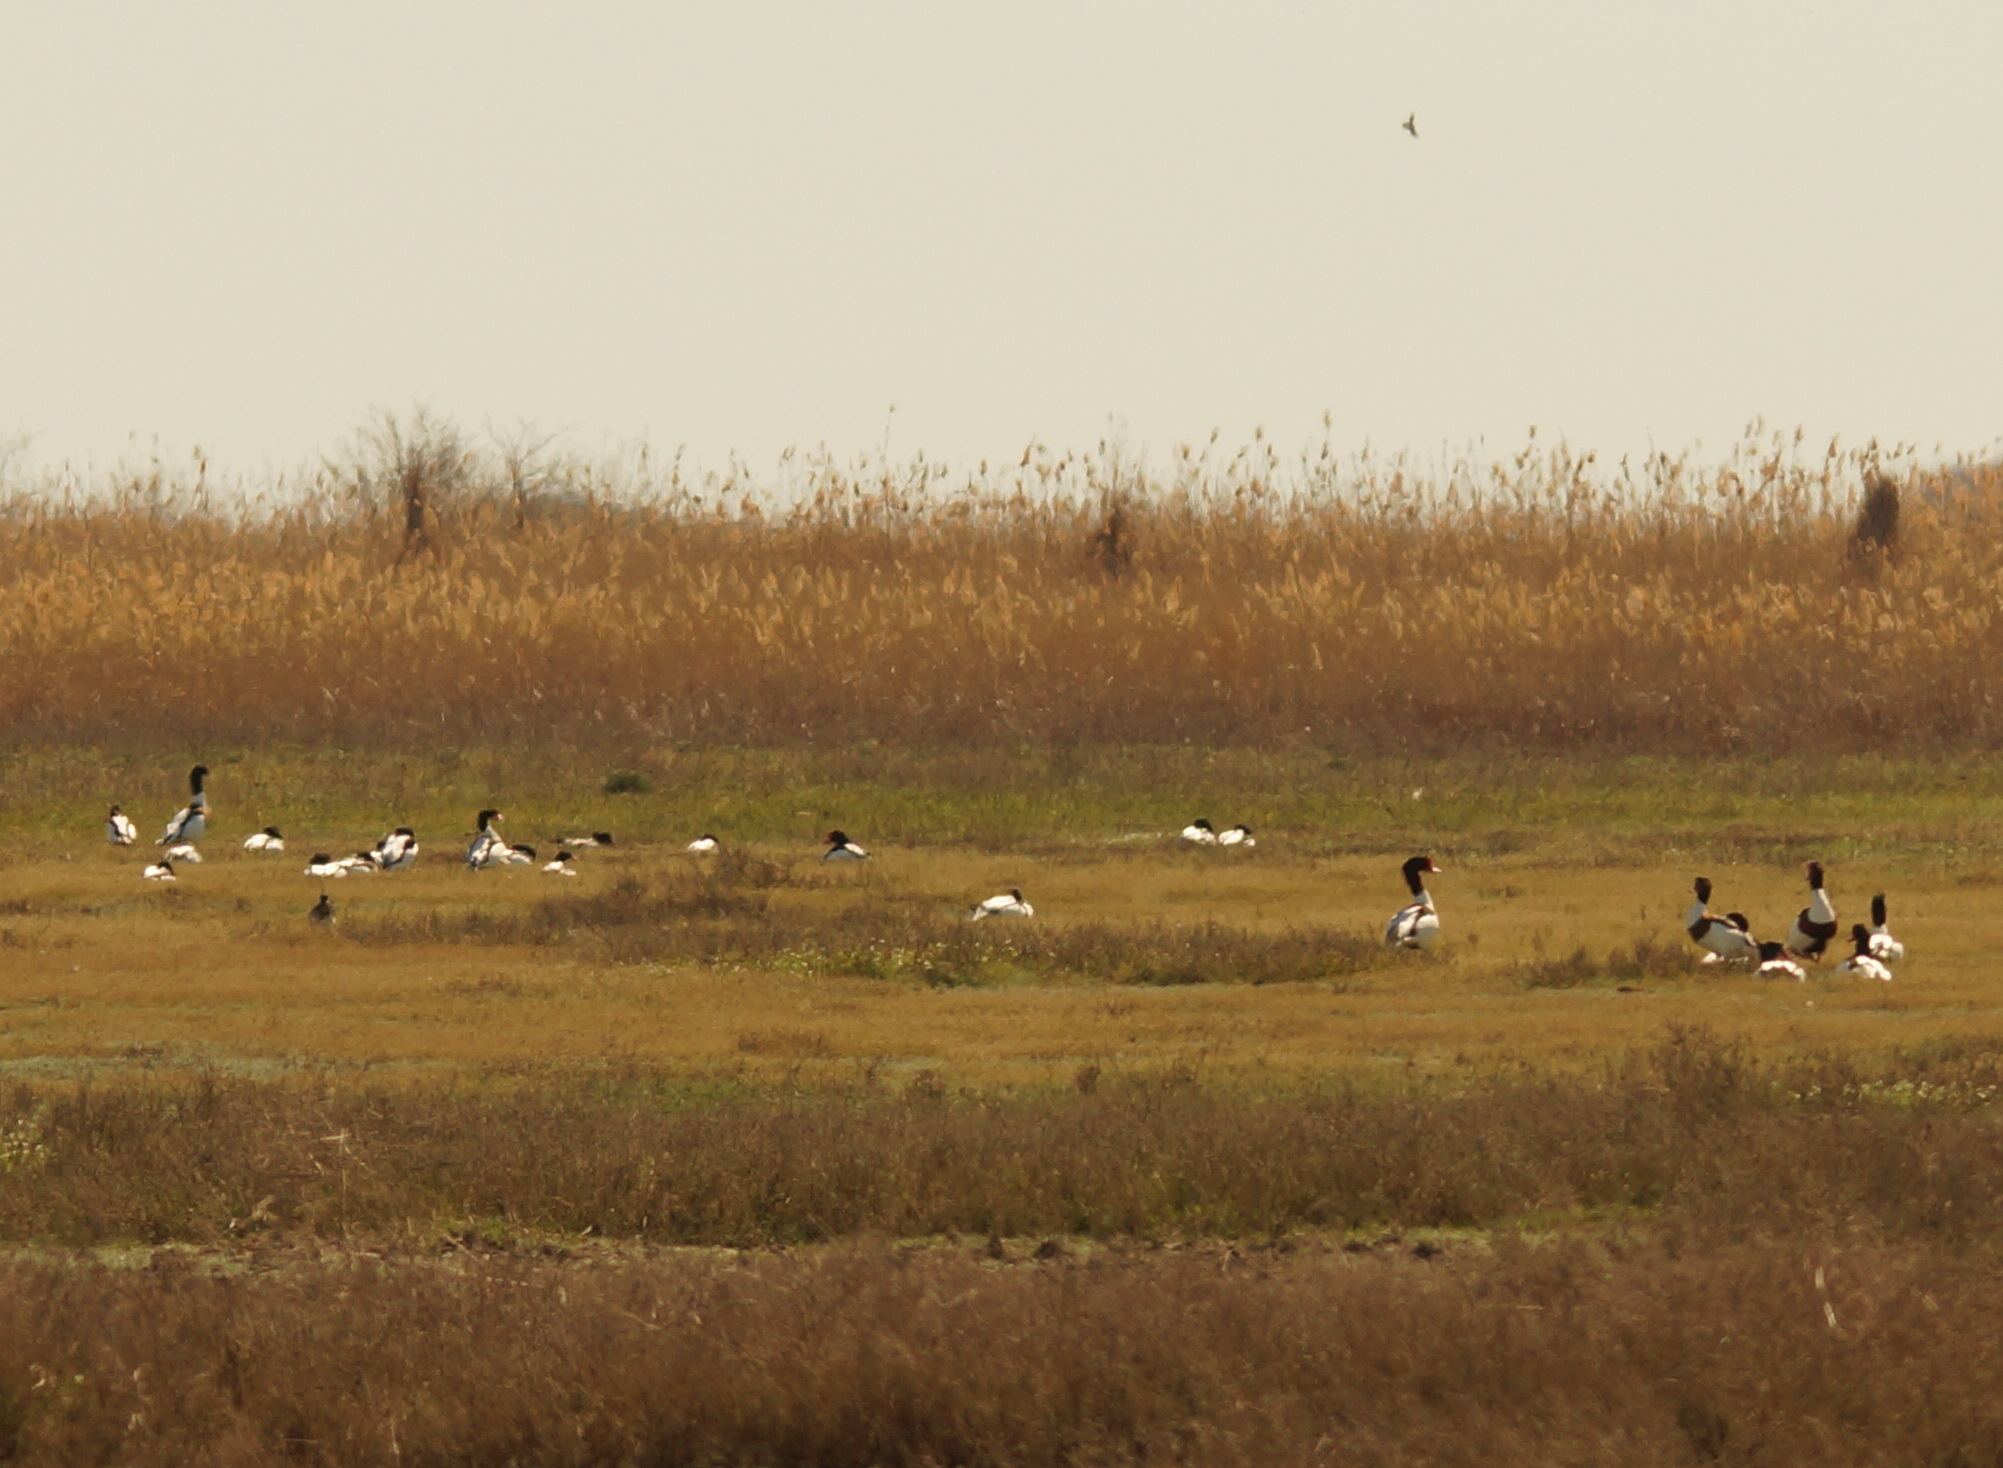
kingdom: Animalia
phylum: Chordata
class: Aves
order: Anseriformes
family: Anatidae
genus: Tadorna
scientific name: Tadorna tadorna
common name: Common shelduck
